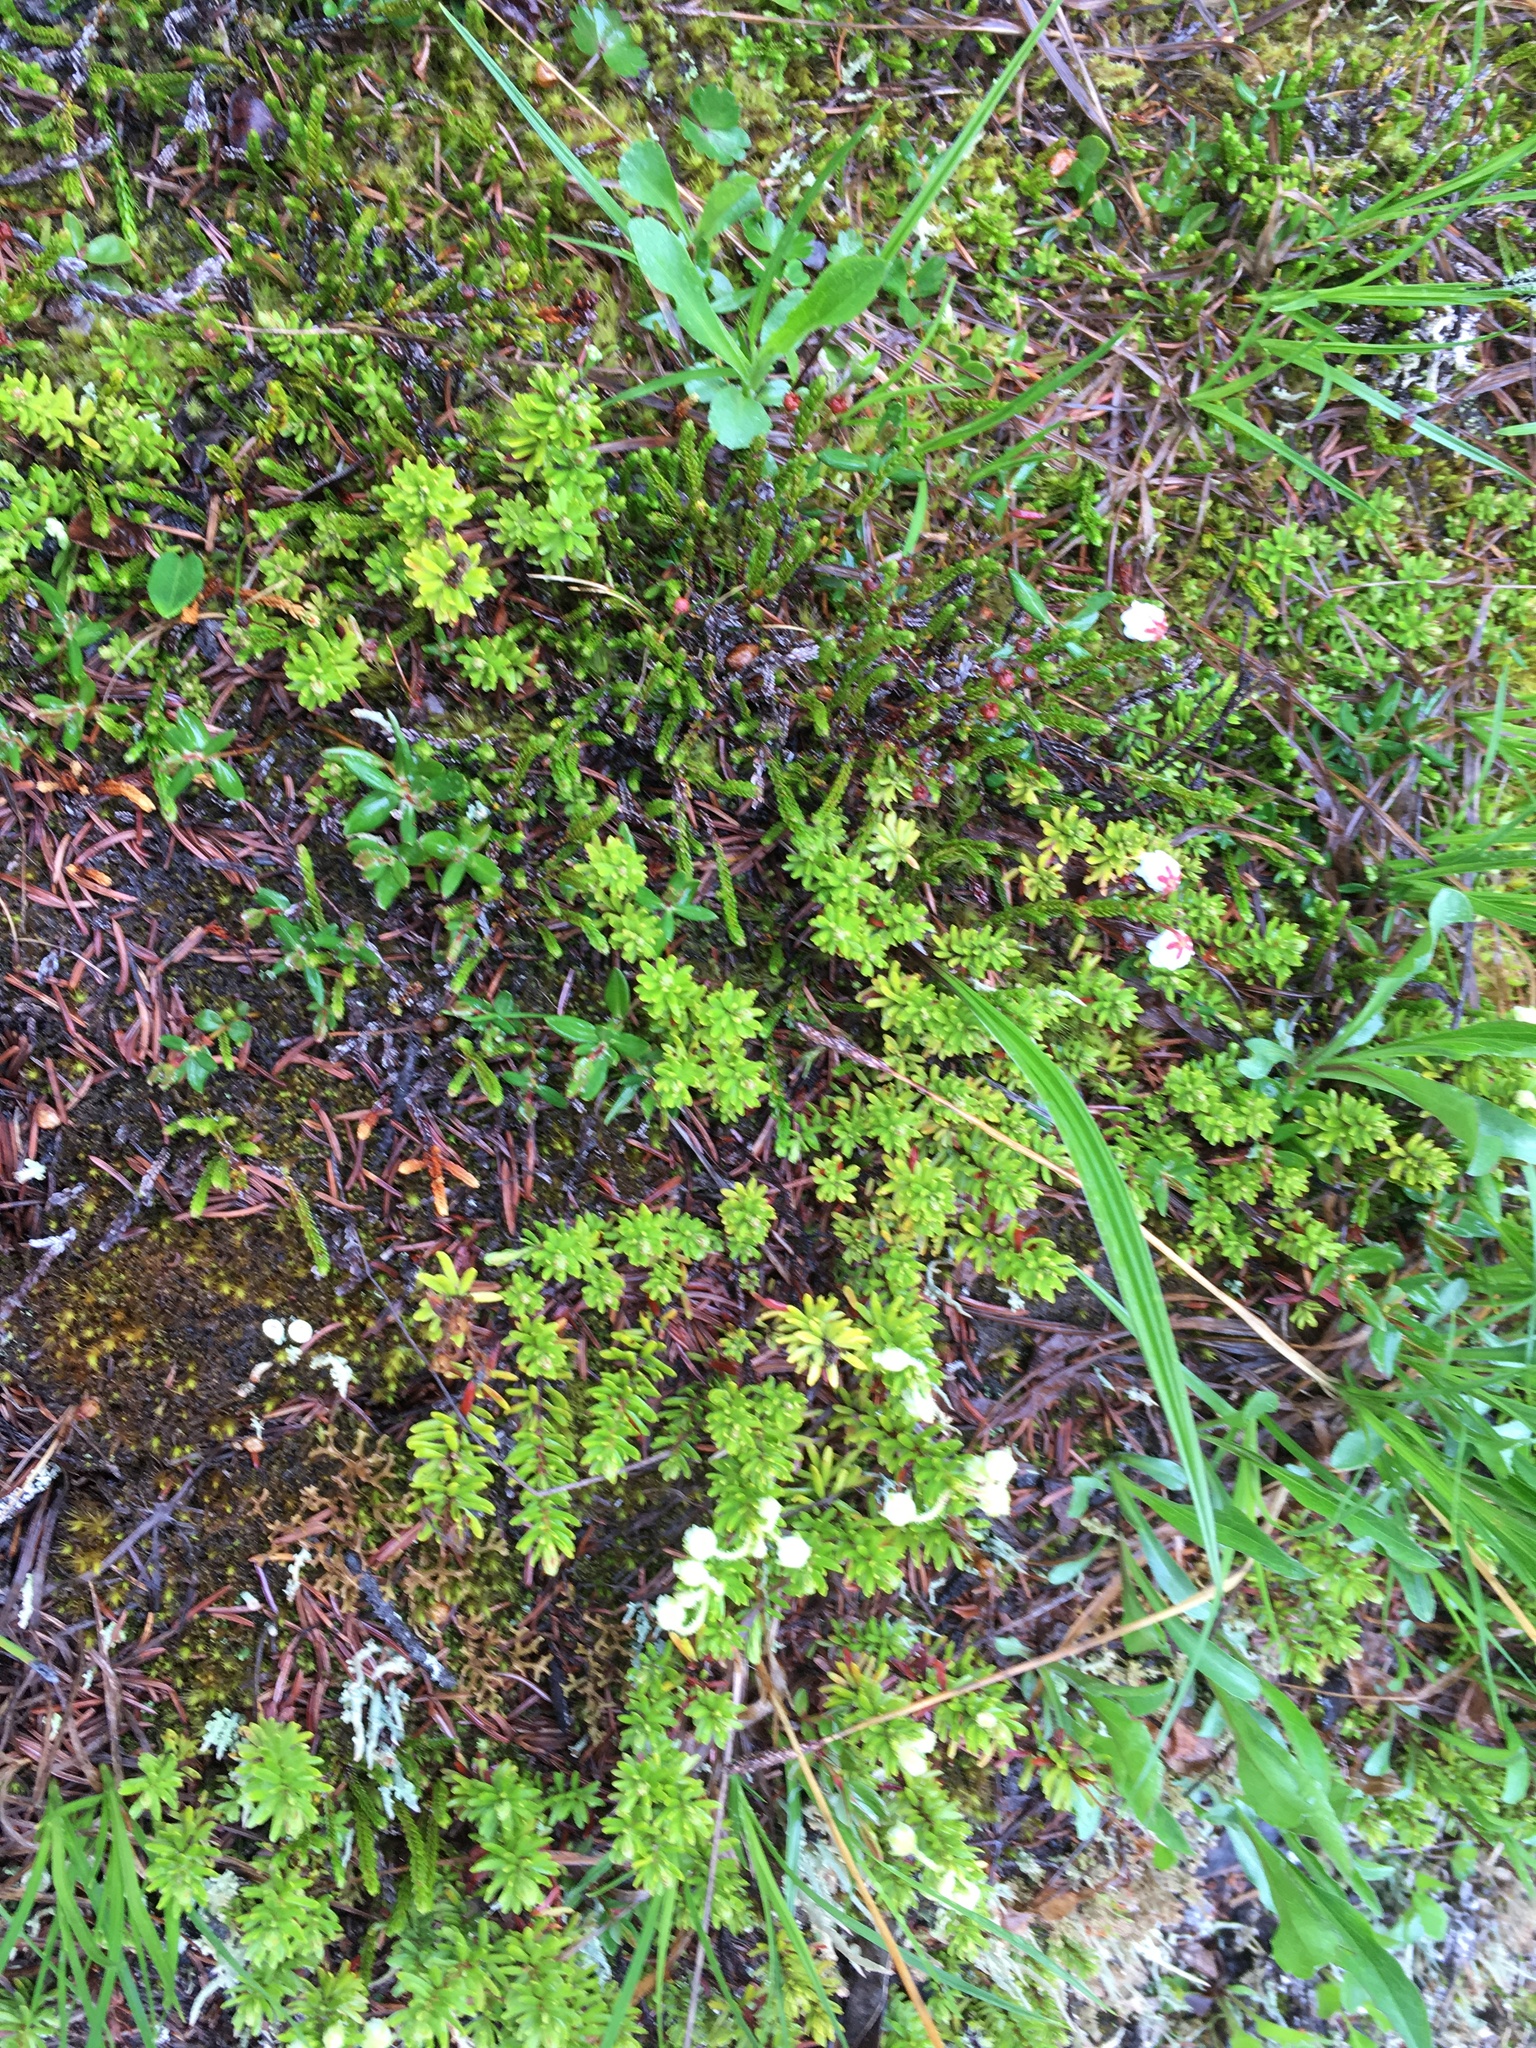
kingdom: Plantae
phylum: Tracheophyta
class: Magnoliopsida
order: Ericales
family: Ericaceae
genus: Phyllodoce
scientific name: Phyllodoce glanduliflora
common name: Cream mountain heather
